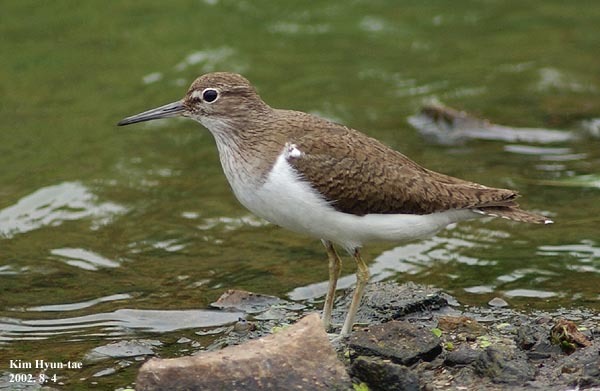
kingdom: Animalia
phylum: Chordata
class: Aves
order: Charadriiformes
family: Scolopacidae
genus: Actitis
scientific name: Actitis hypoleucos
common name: Common sandpiper
